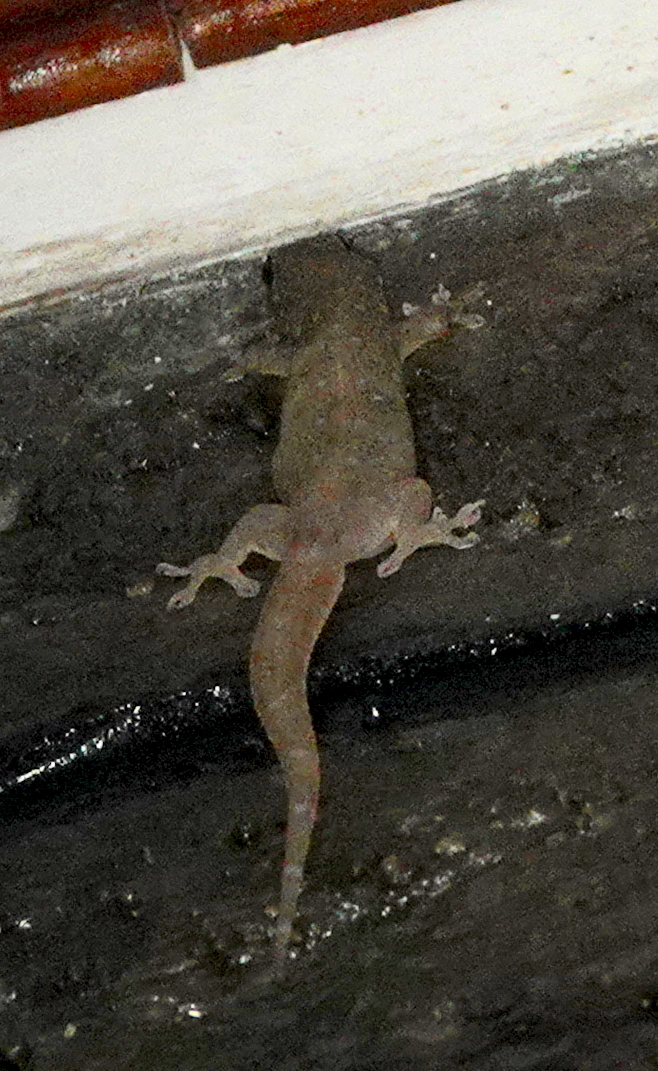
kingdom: Animalia
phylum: Chordata
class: Squamata
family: Gekkonidae
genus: Gehyra
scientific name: Gehyra mutilata
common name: Stump-toed gecko
